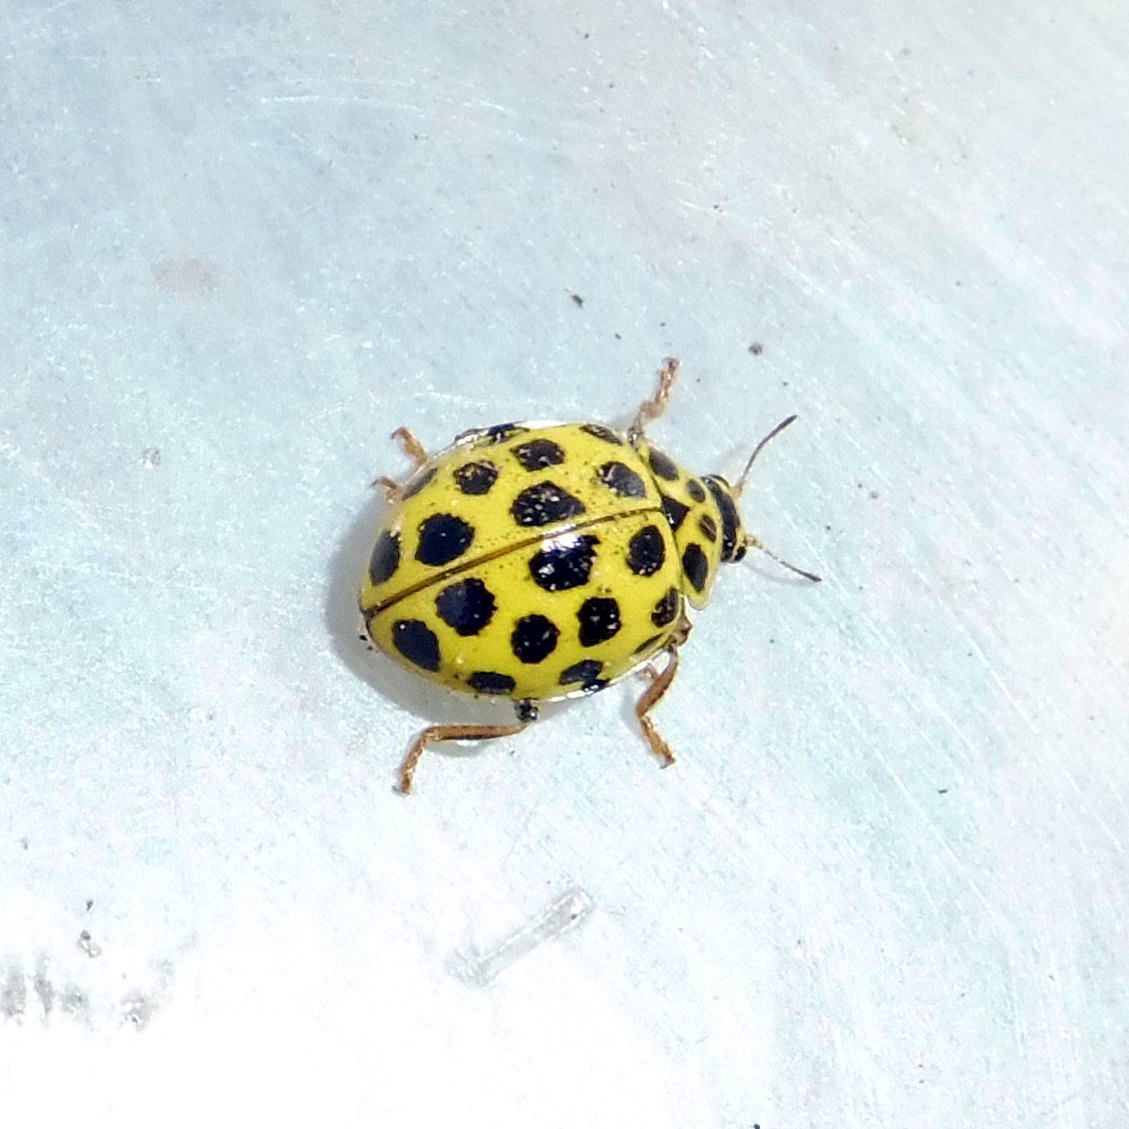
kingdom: Animalia
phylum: Arthropoda
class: Insecta
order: Coleoptera
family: Coccinellidae
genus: Psyllobora
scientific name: Psyllobora vigintiduopunctata
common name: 22-spot ladybird
